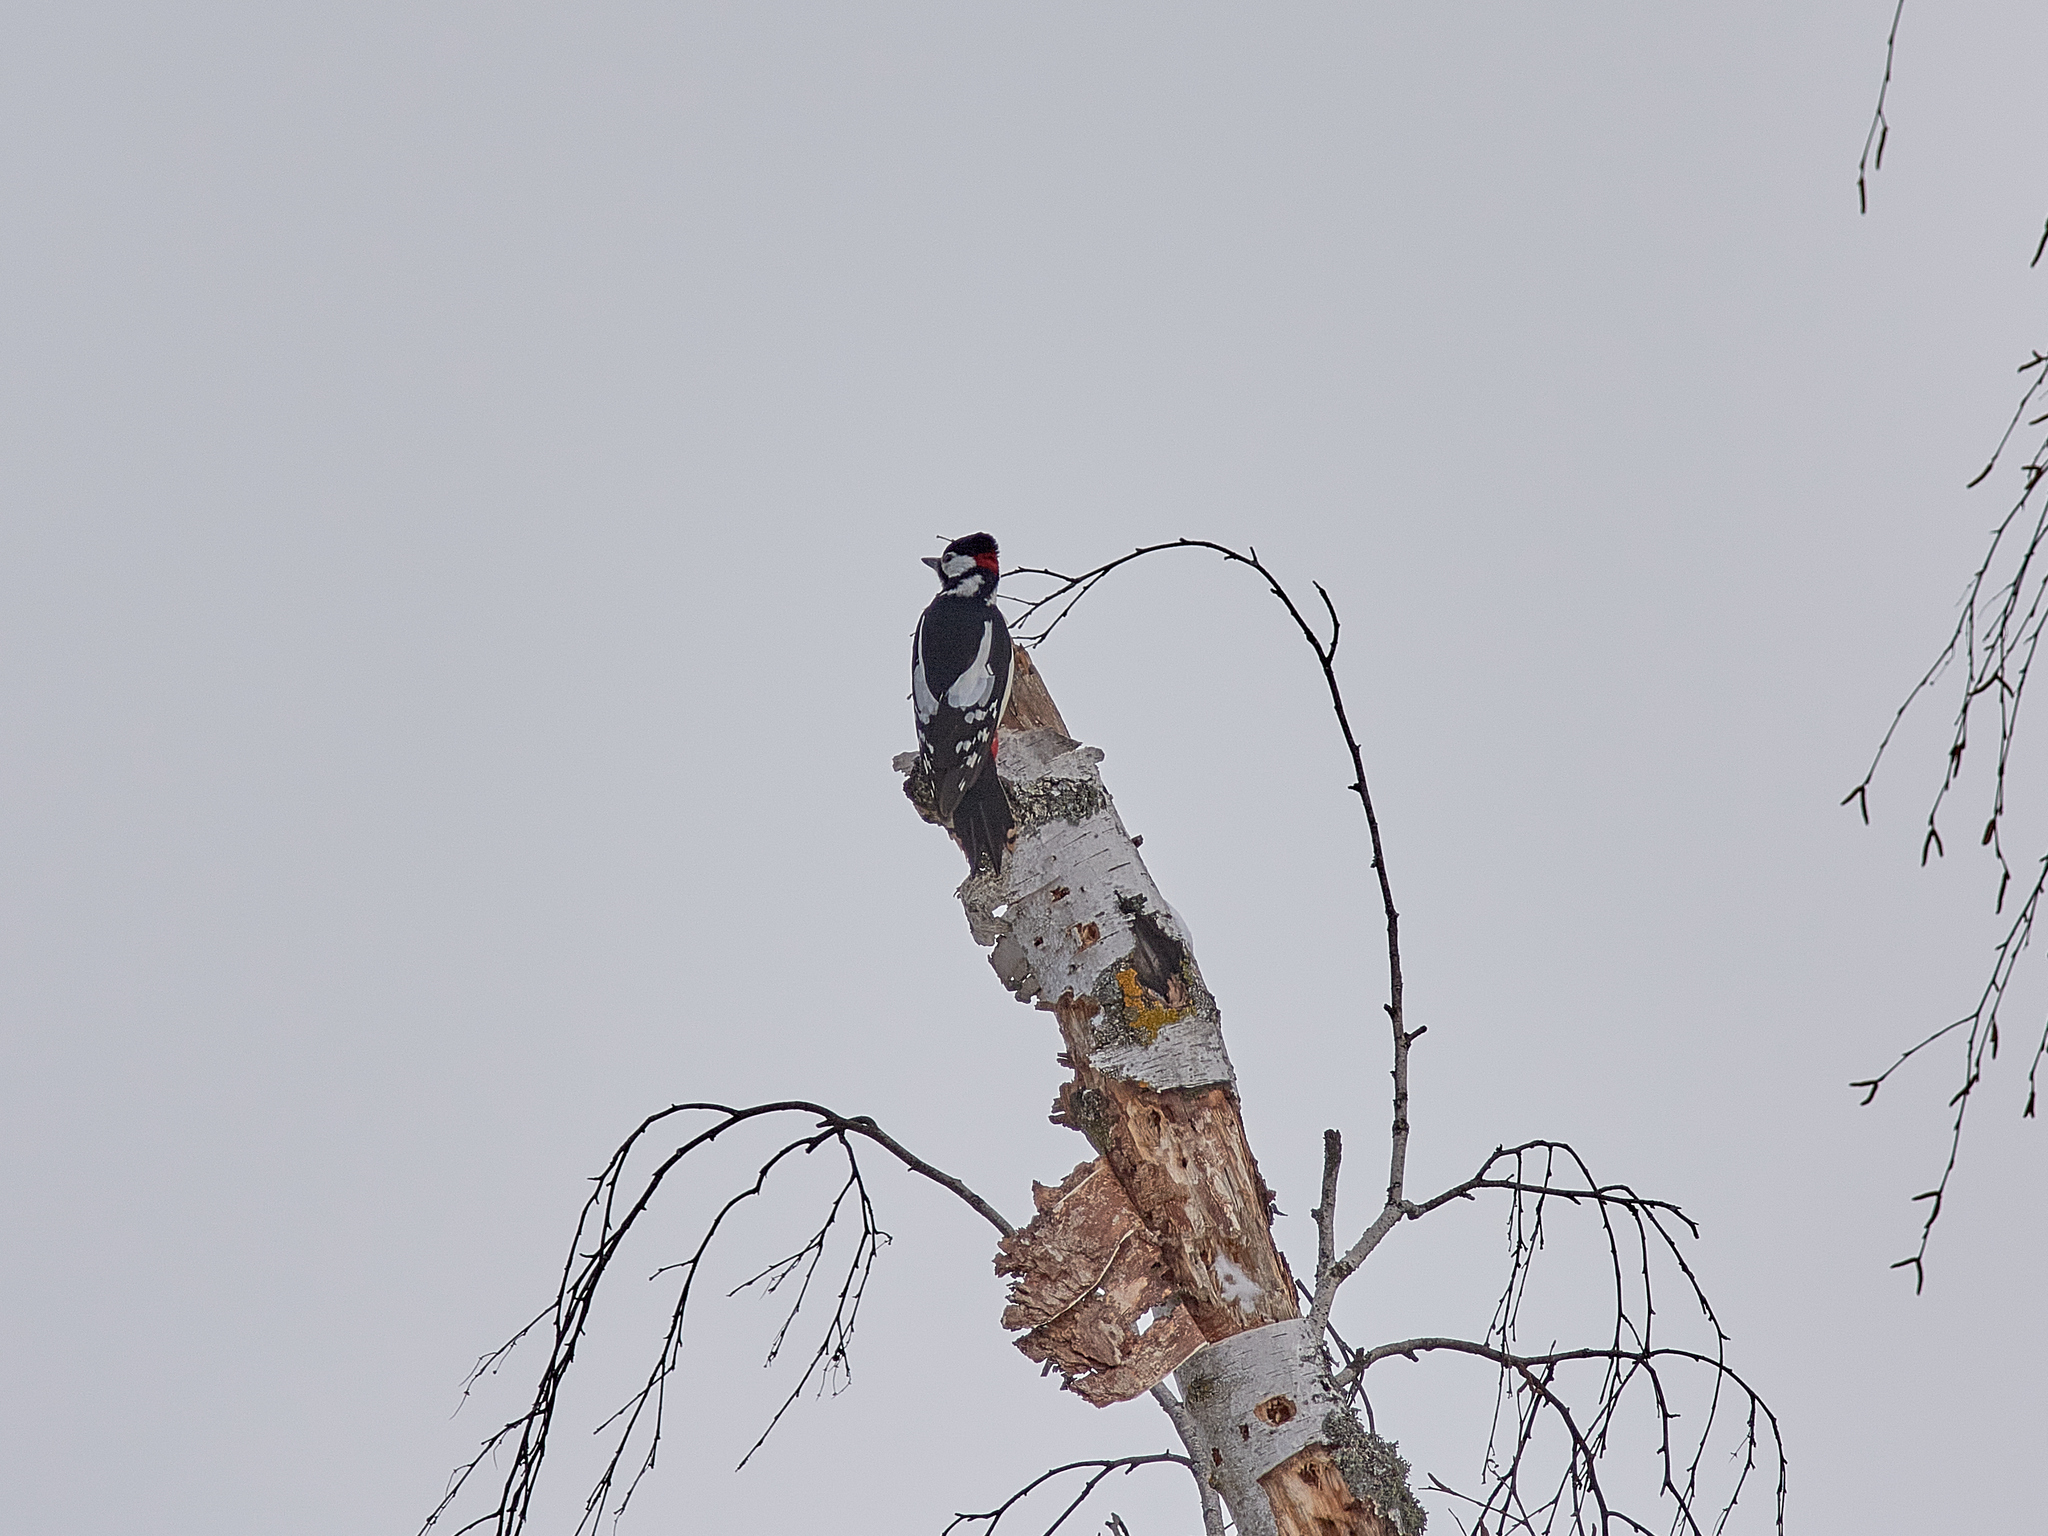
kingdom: Animalia
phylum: Chordata
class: Aves
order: Piciformes
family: Picidae
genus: Dendrocopos
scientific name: Dendrocopos major
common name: Great spotted woodpecker
